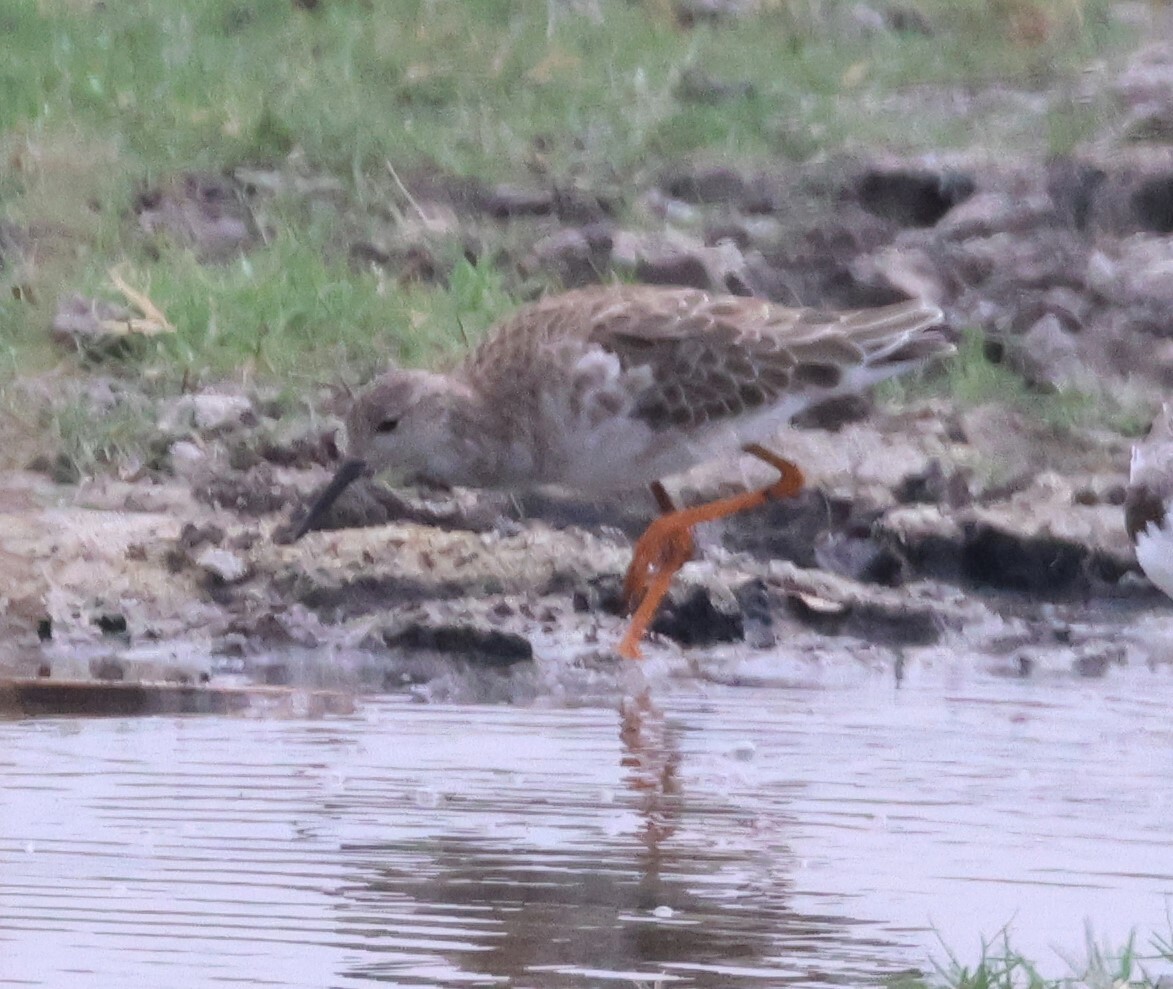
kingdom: Animalia
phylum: Chordata
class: Aves
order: Charadriiformes
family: Scolopacidae
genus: Calidris
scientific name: Calidris pugnax
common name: Ruff
